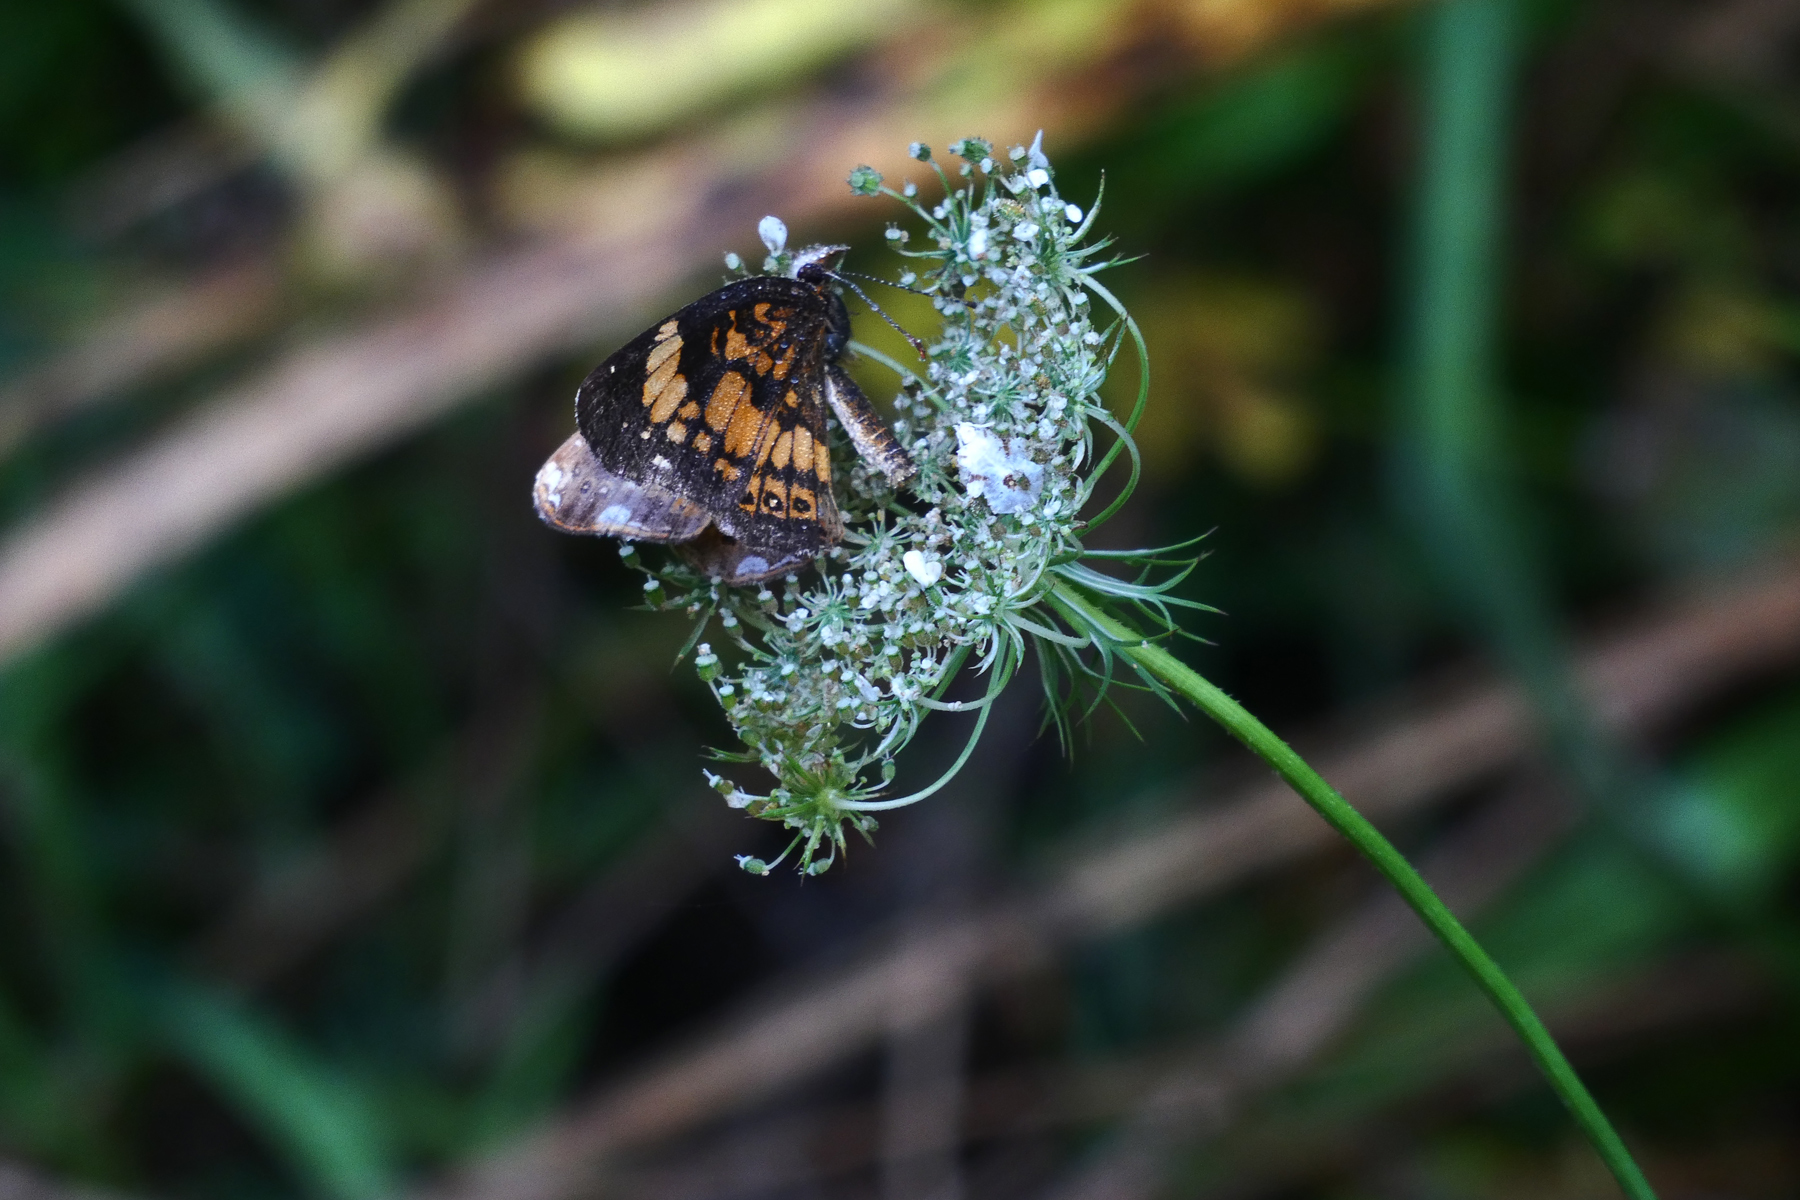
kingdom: Animalia
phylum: Arthropoda
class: Insecta
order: Lepidoptera
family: Nymphalidae
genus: Chlosyne
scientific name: Chlosyne nycteis
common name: Silvery checkerspot
